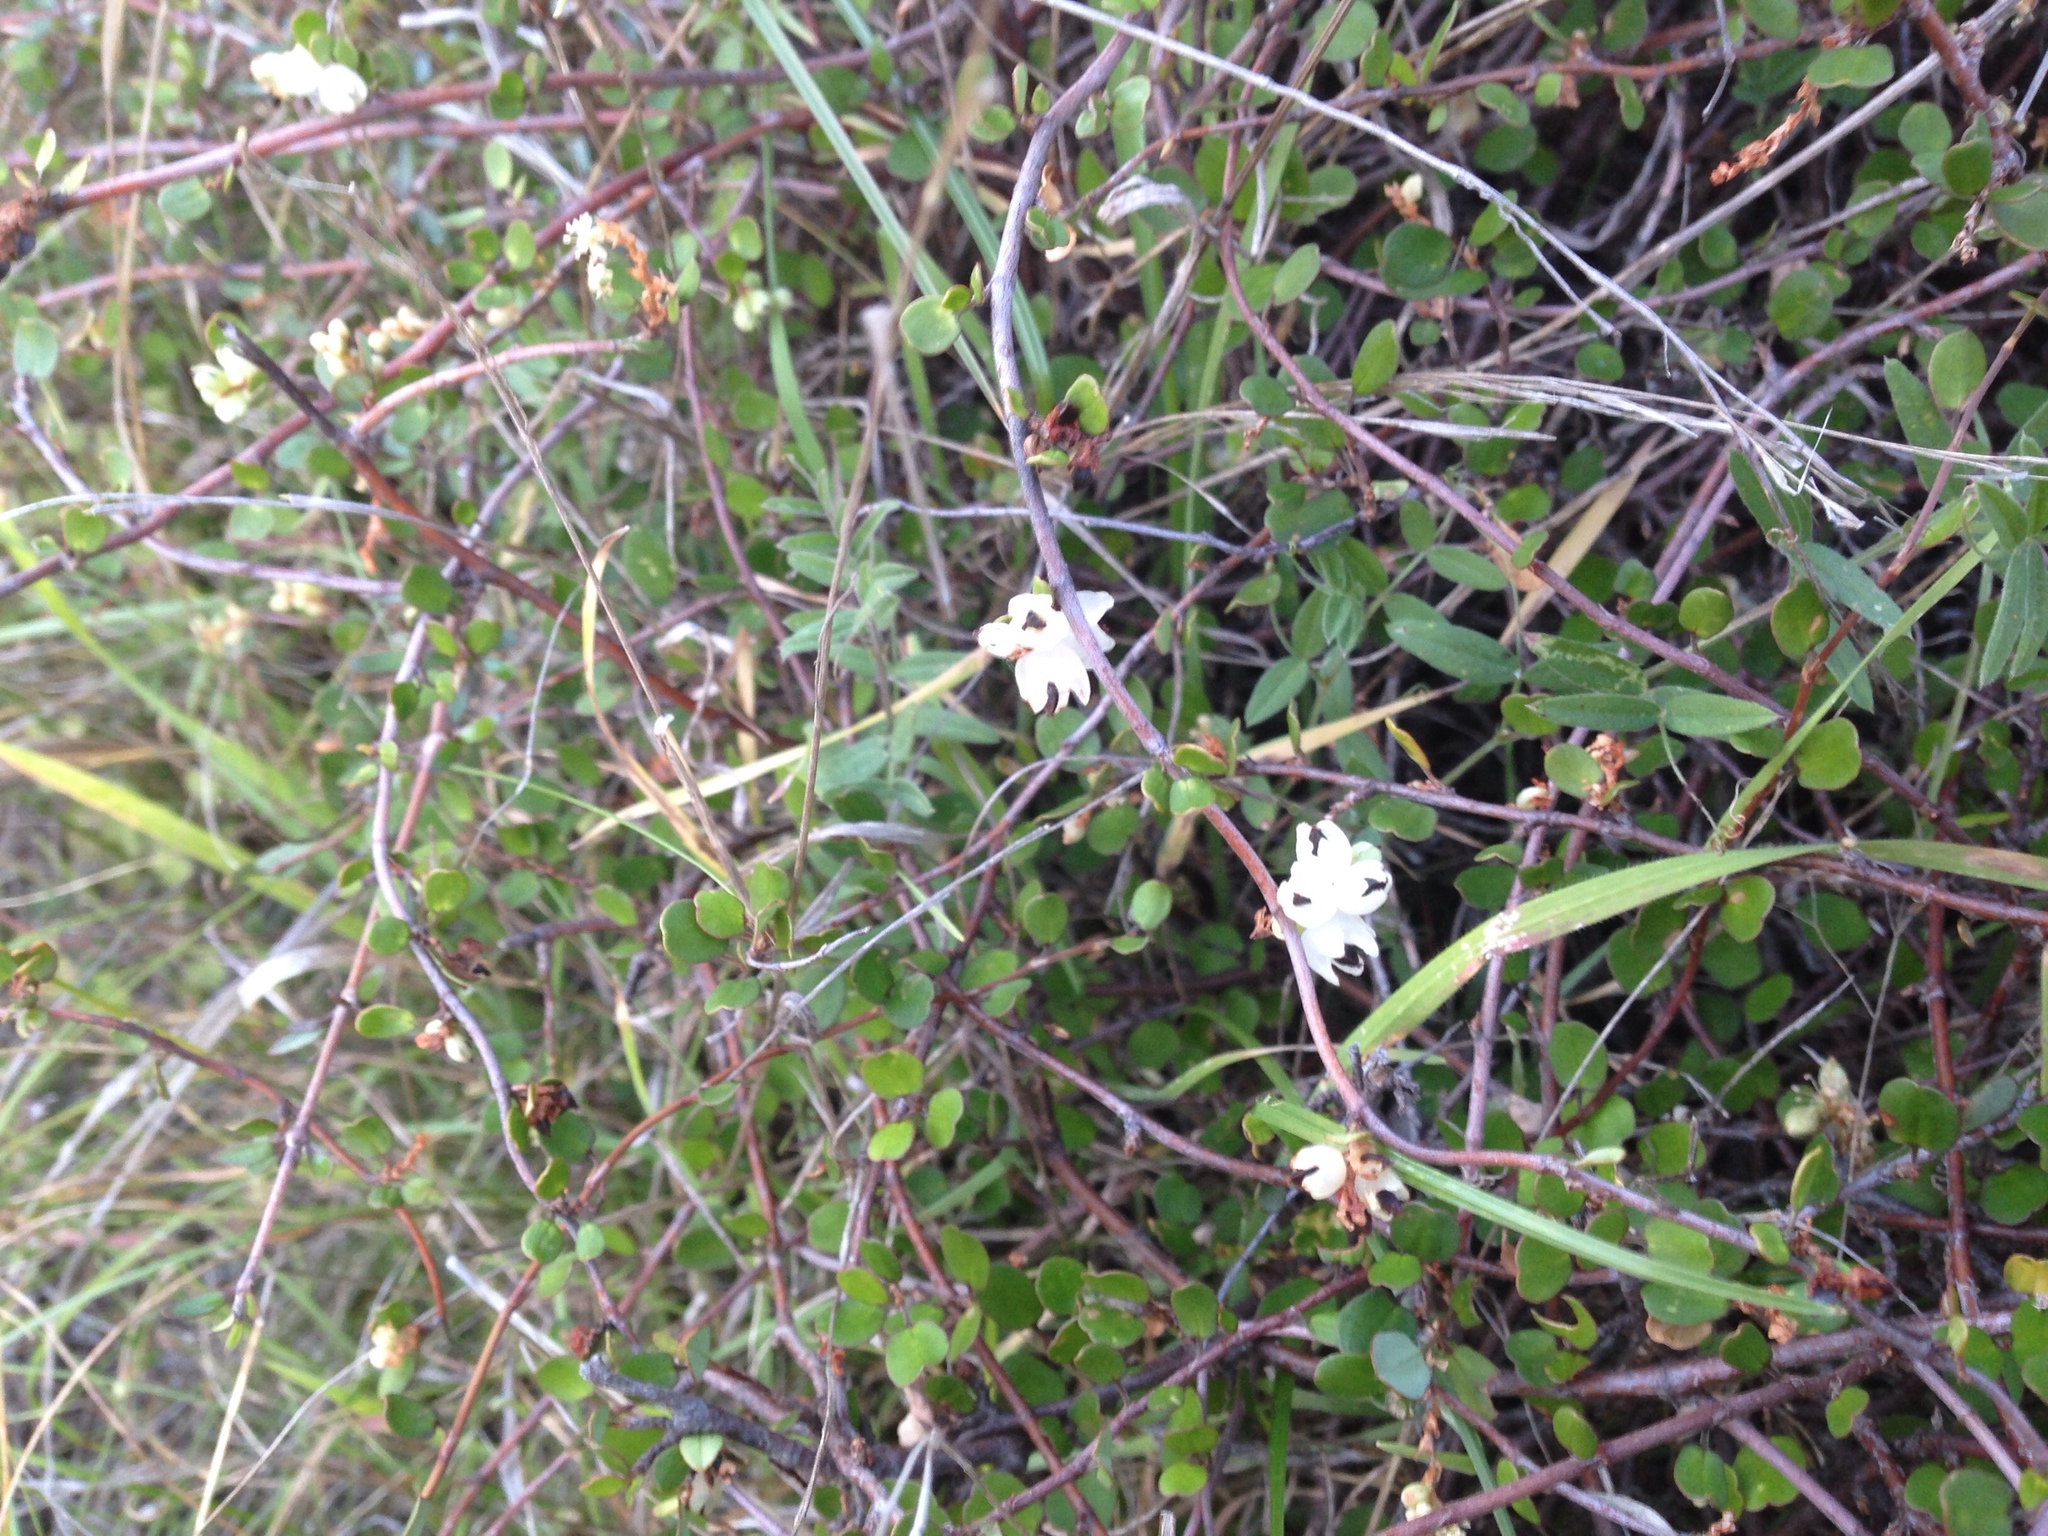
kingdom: Plantae
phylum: Tracheophyta
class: Magnoliopsida
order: Caryophyllales
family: Polygonaceae
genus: Muehlenbeckia
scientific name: Muehlenbeckia complexa
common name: Wireplant
